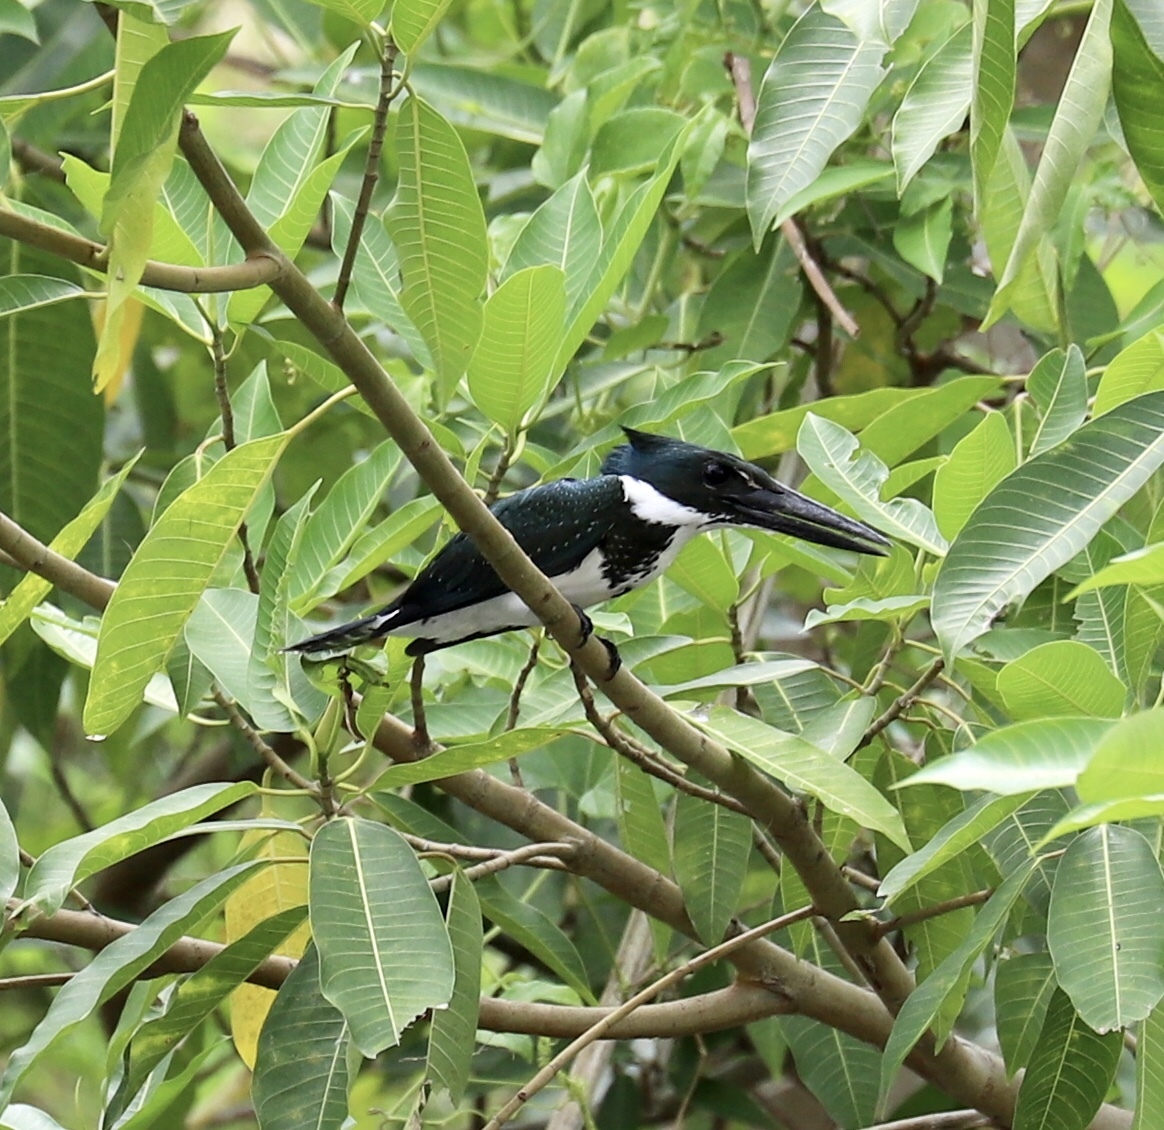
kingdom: Animalia
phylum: Chordata
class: Aves
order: Coraciiformes
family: Alcedinidae
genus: Chloroceryle
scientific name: Chloroceryle amazona
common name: Amazon kingfisher
